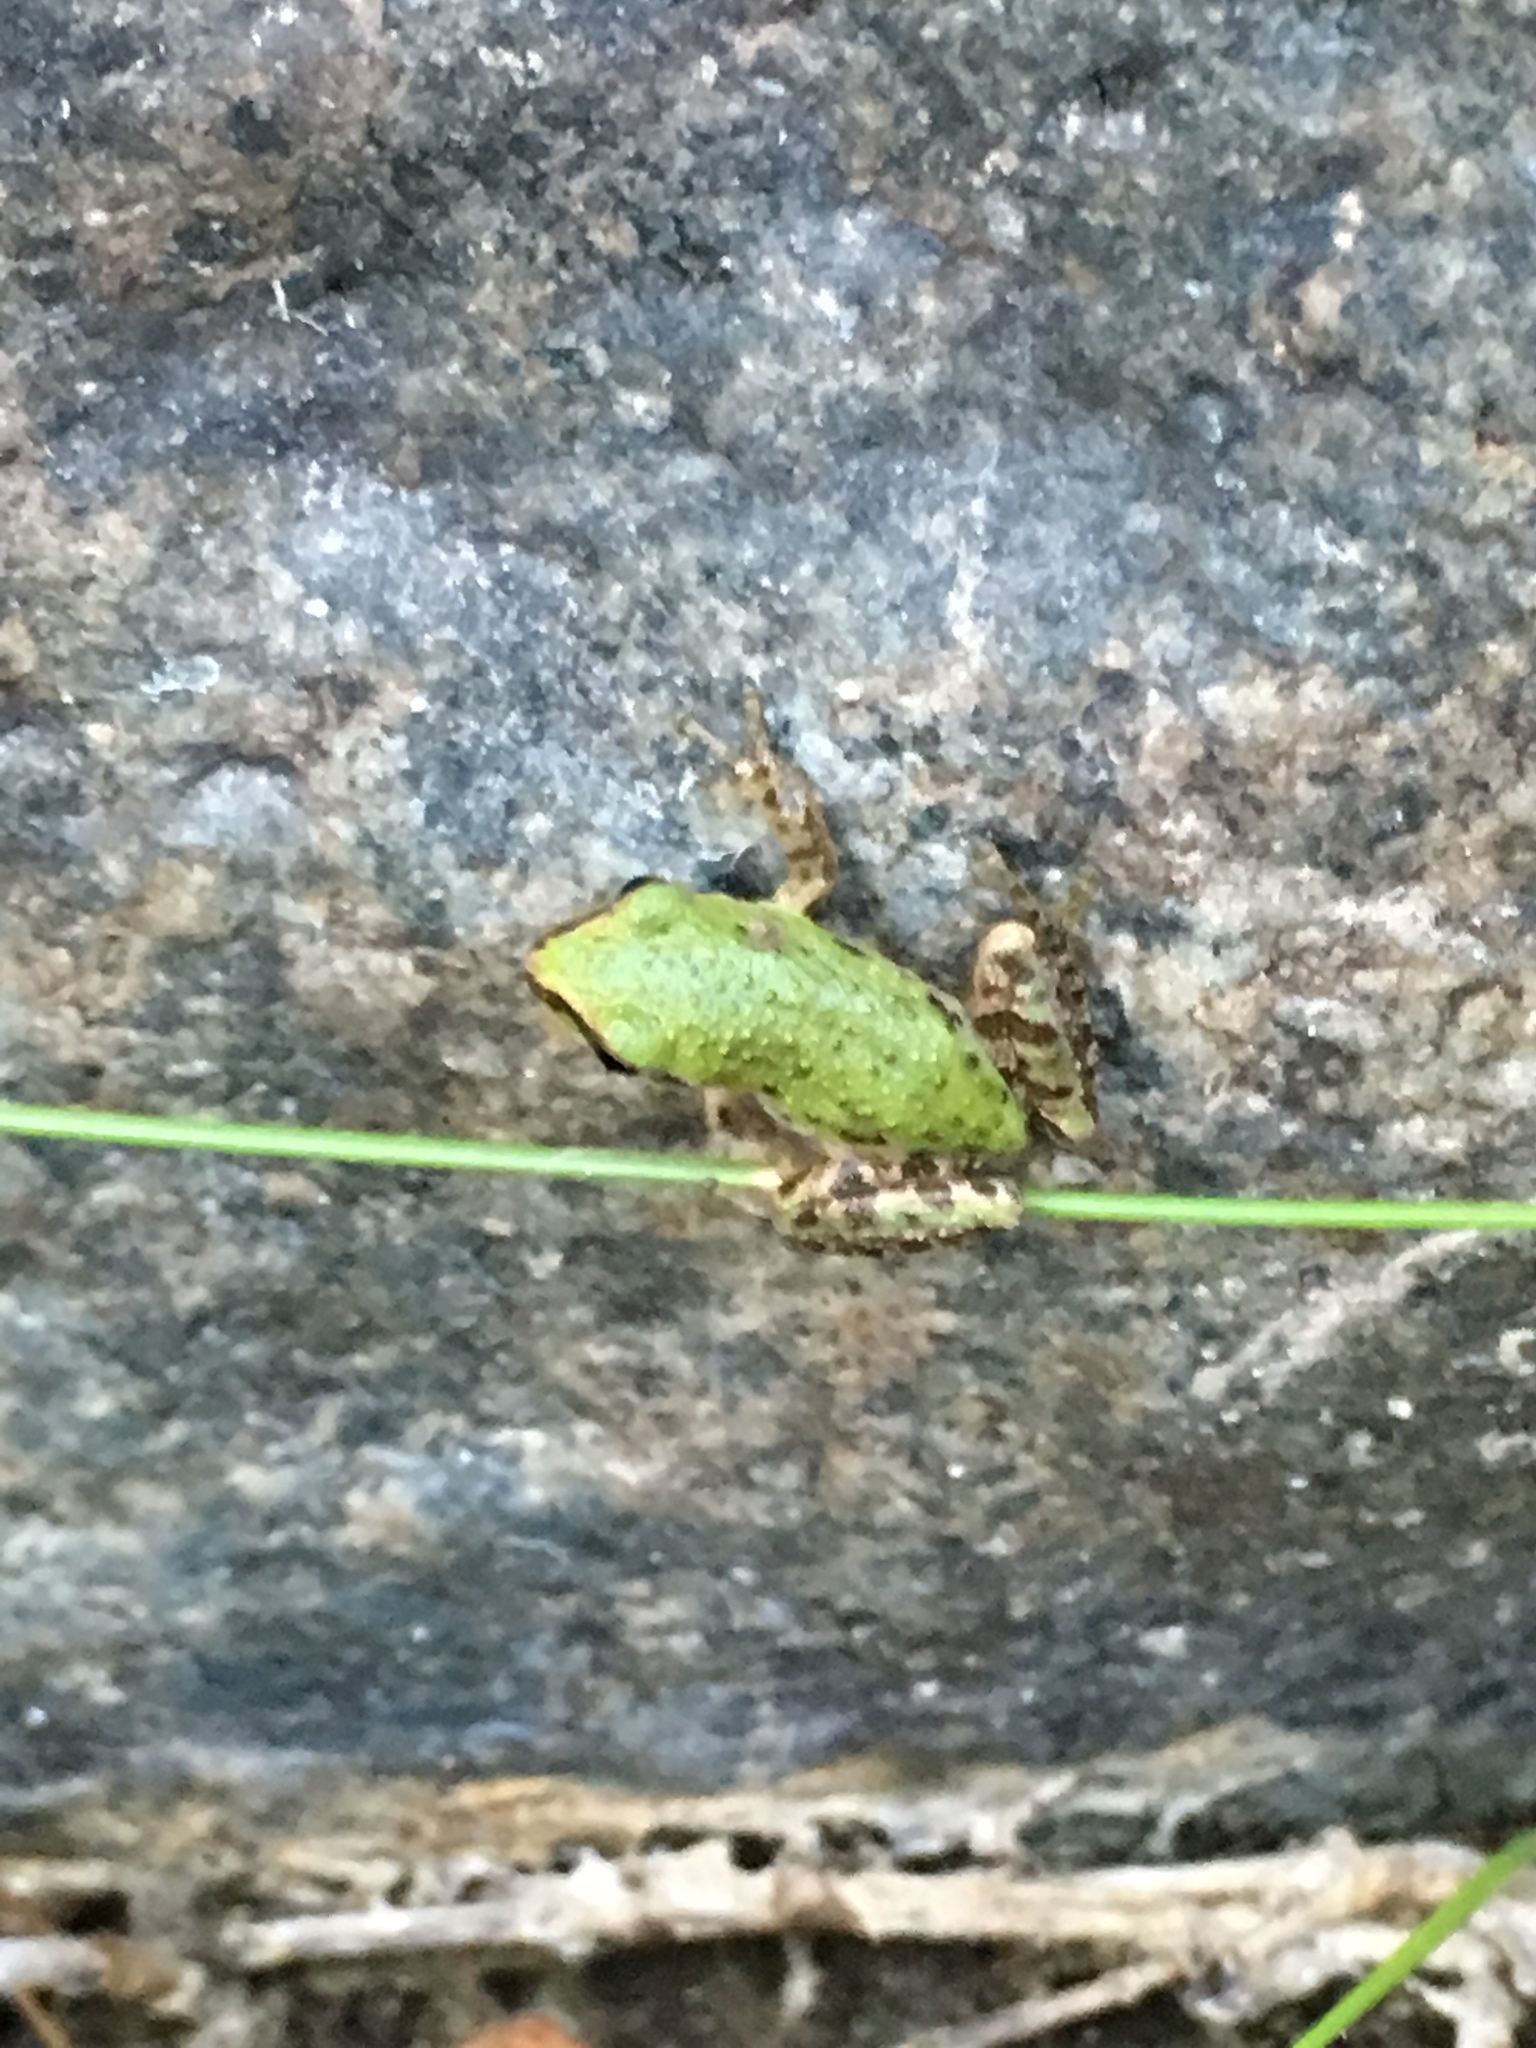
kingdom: Animalia
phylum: Chordata
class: Amphibia
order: Anura
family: Hylidae
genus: Pseudacris
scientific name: Pseudacris regilla
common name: Pacific chorus frog
